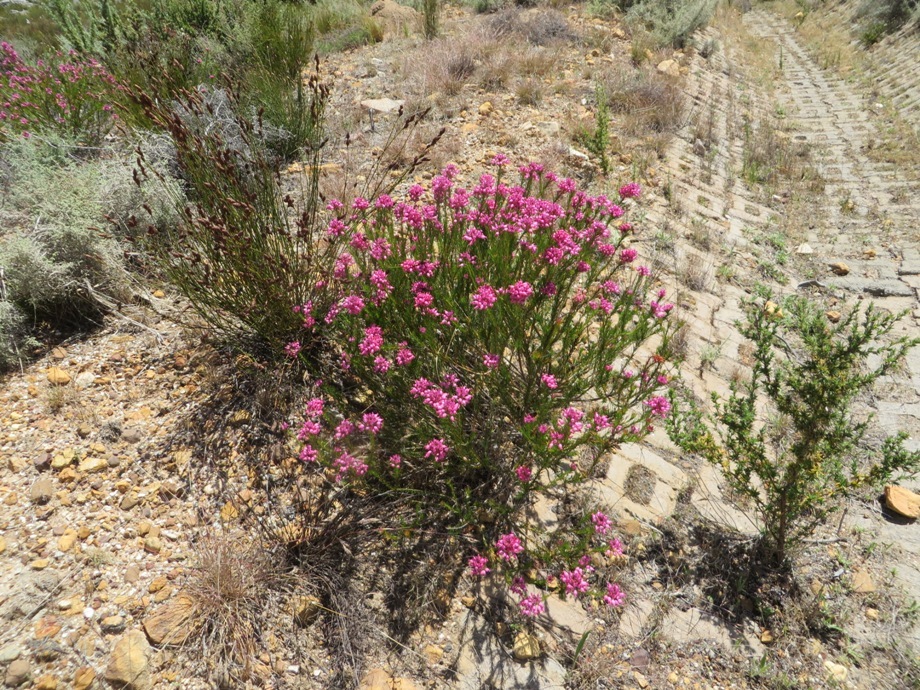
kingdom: Plantae
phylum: Tracheophyta
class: Magnoliopsida
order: Ericales
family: Ericaceae
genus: Erica
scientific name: Erica inflata
